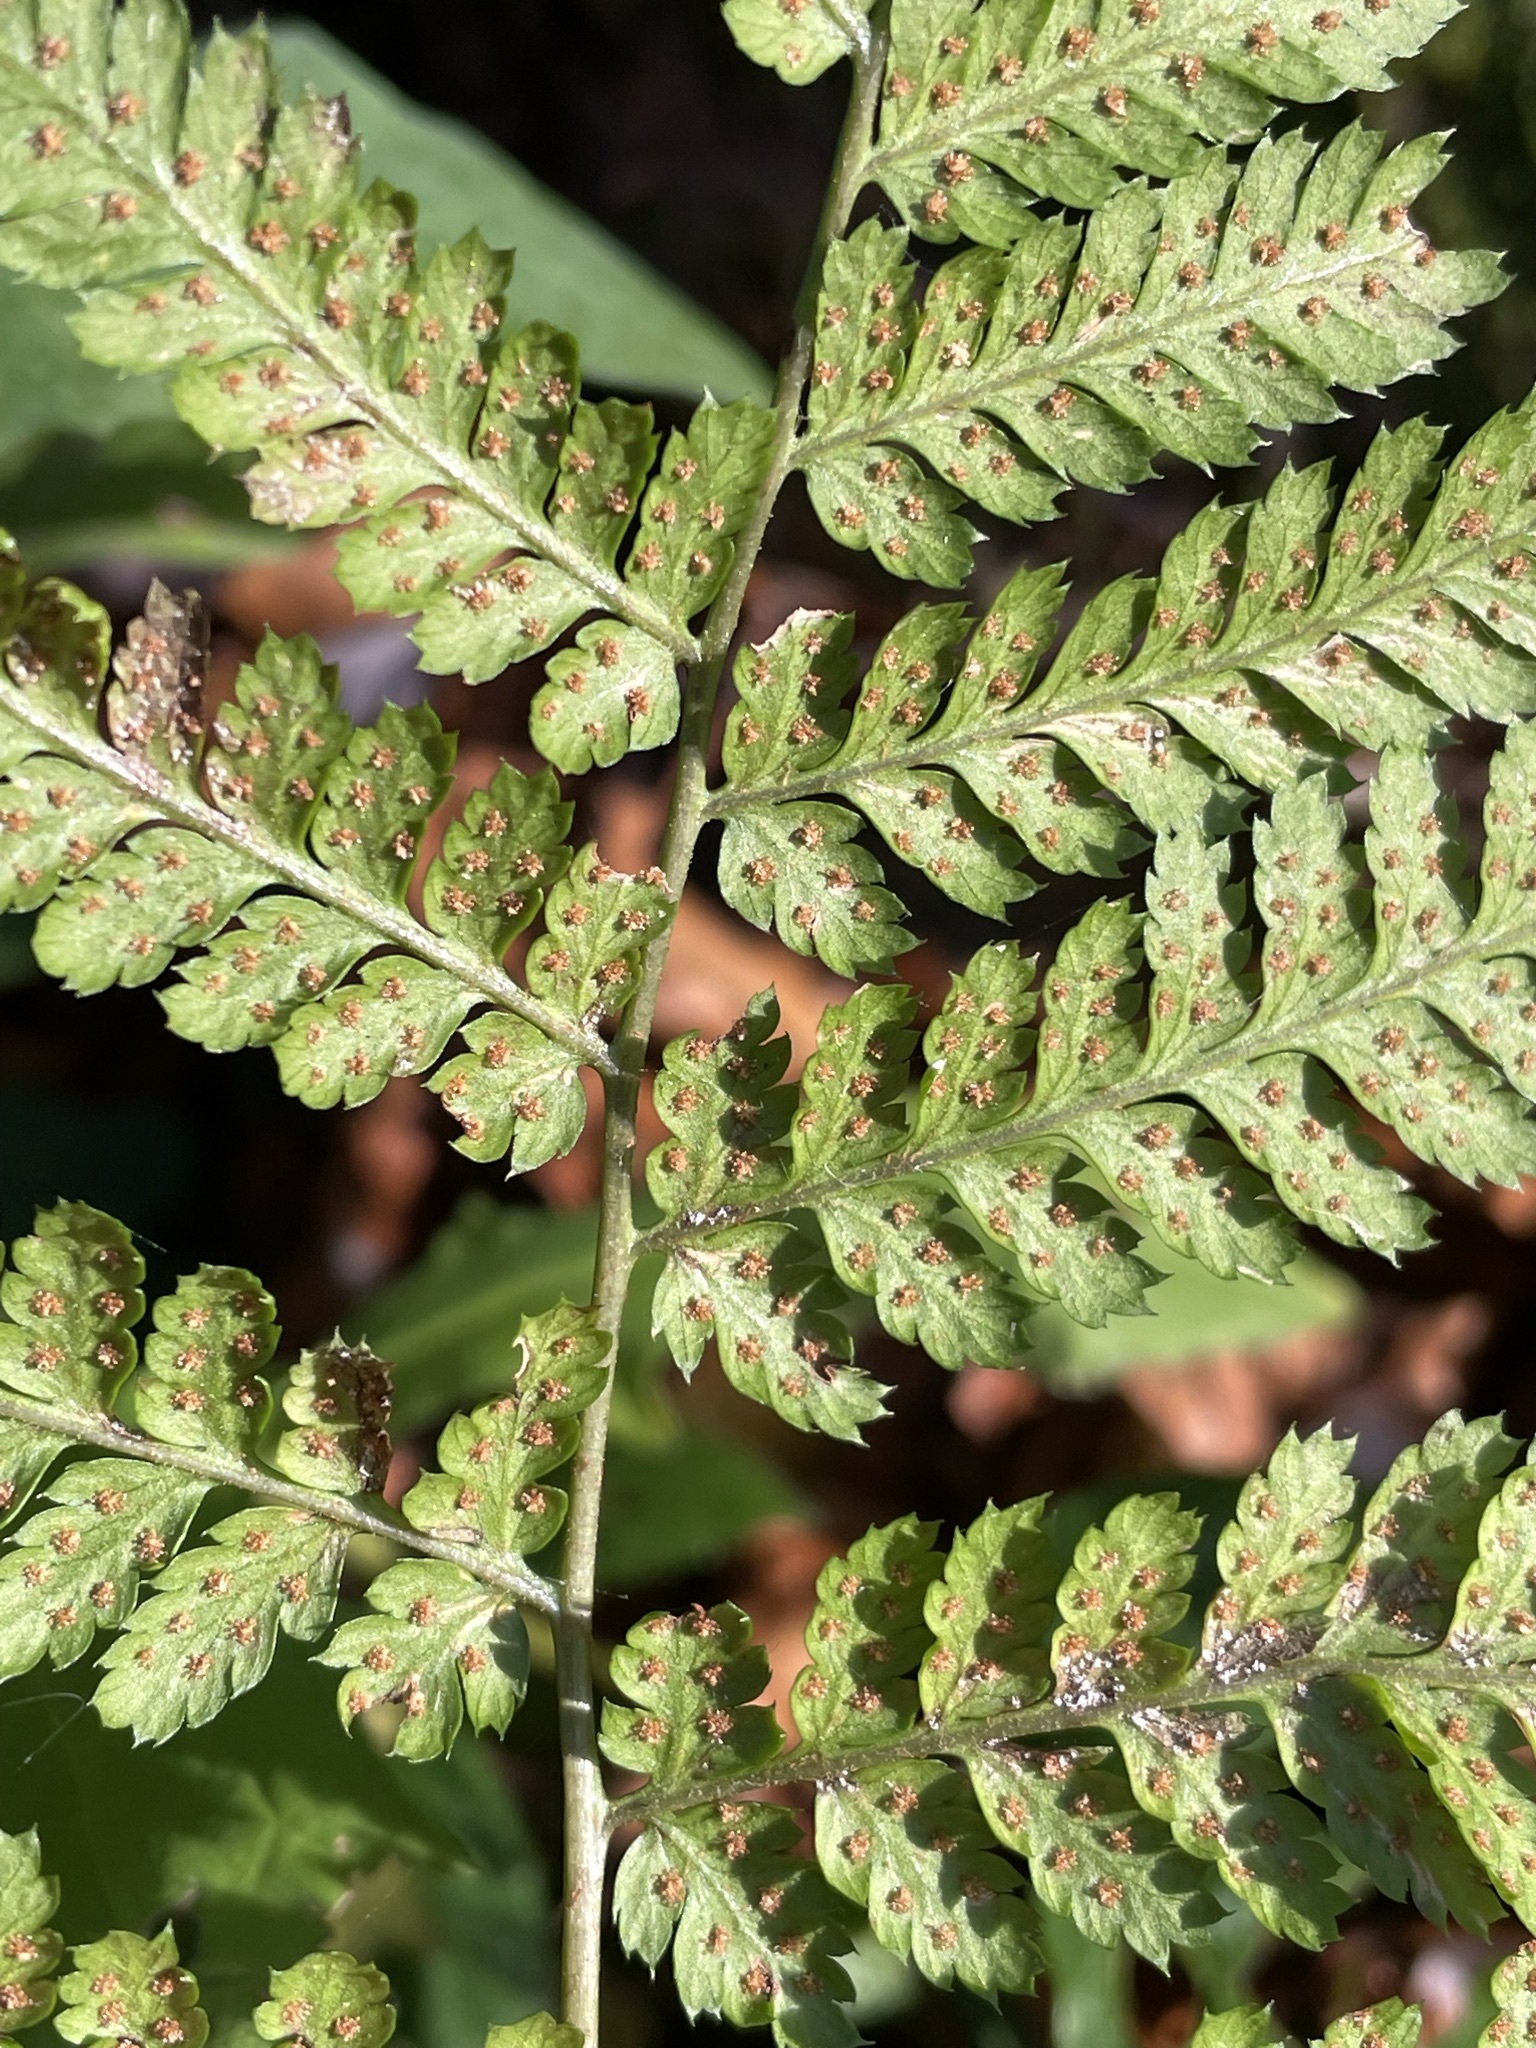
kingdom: Plantae
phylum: Tracheophyta
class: Polypodiopsida
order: Polypodiales
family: Dryopteridaceae
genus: Dryopteris
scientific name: Dryopteris dilatata
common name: Broad buckler-fern
